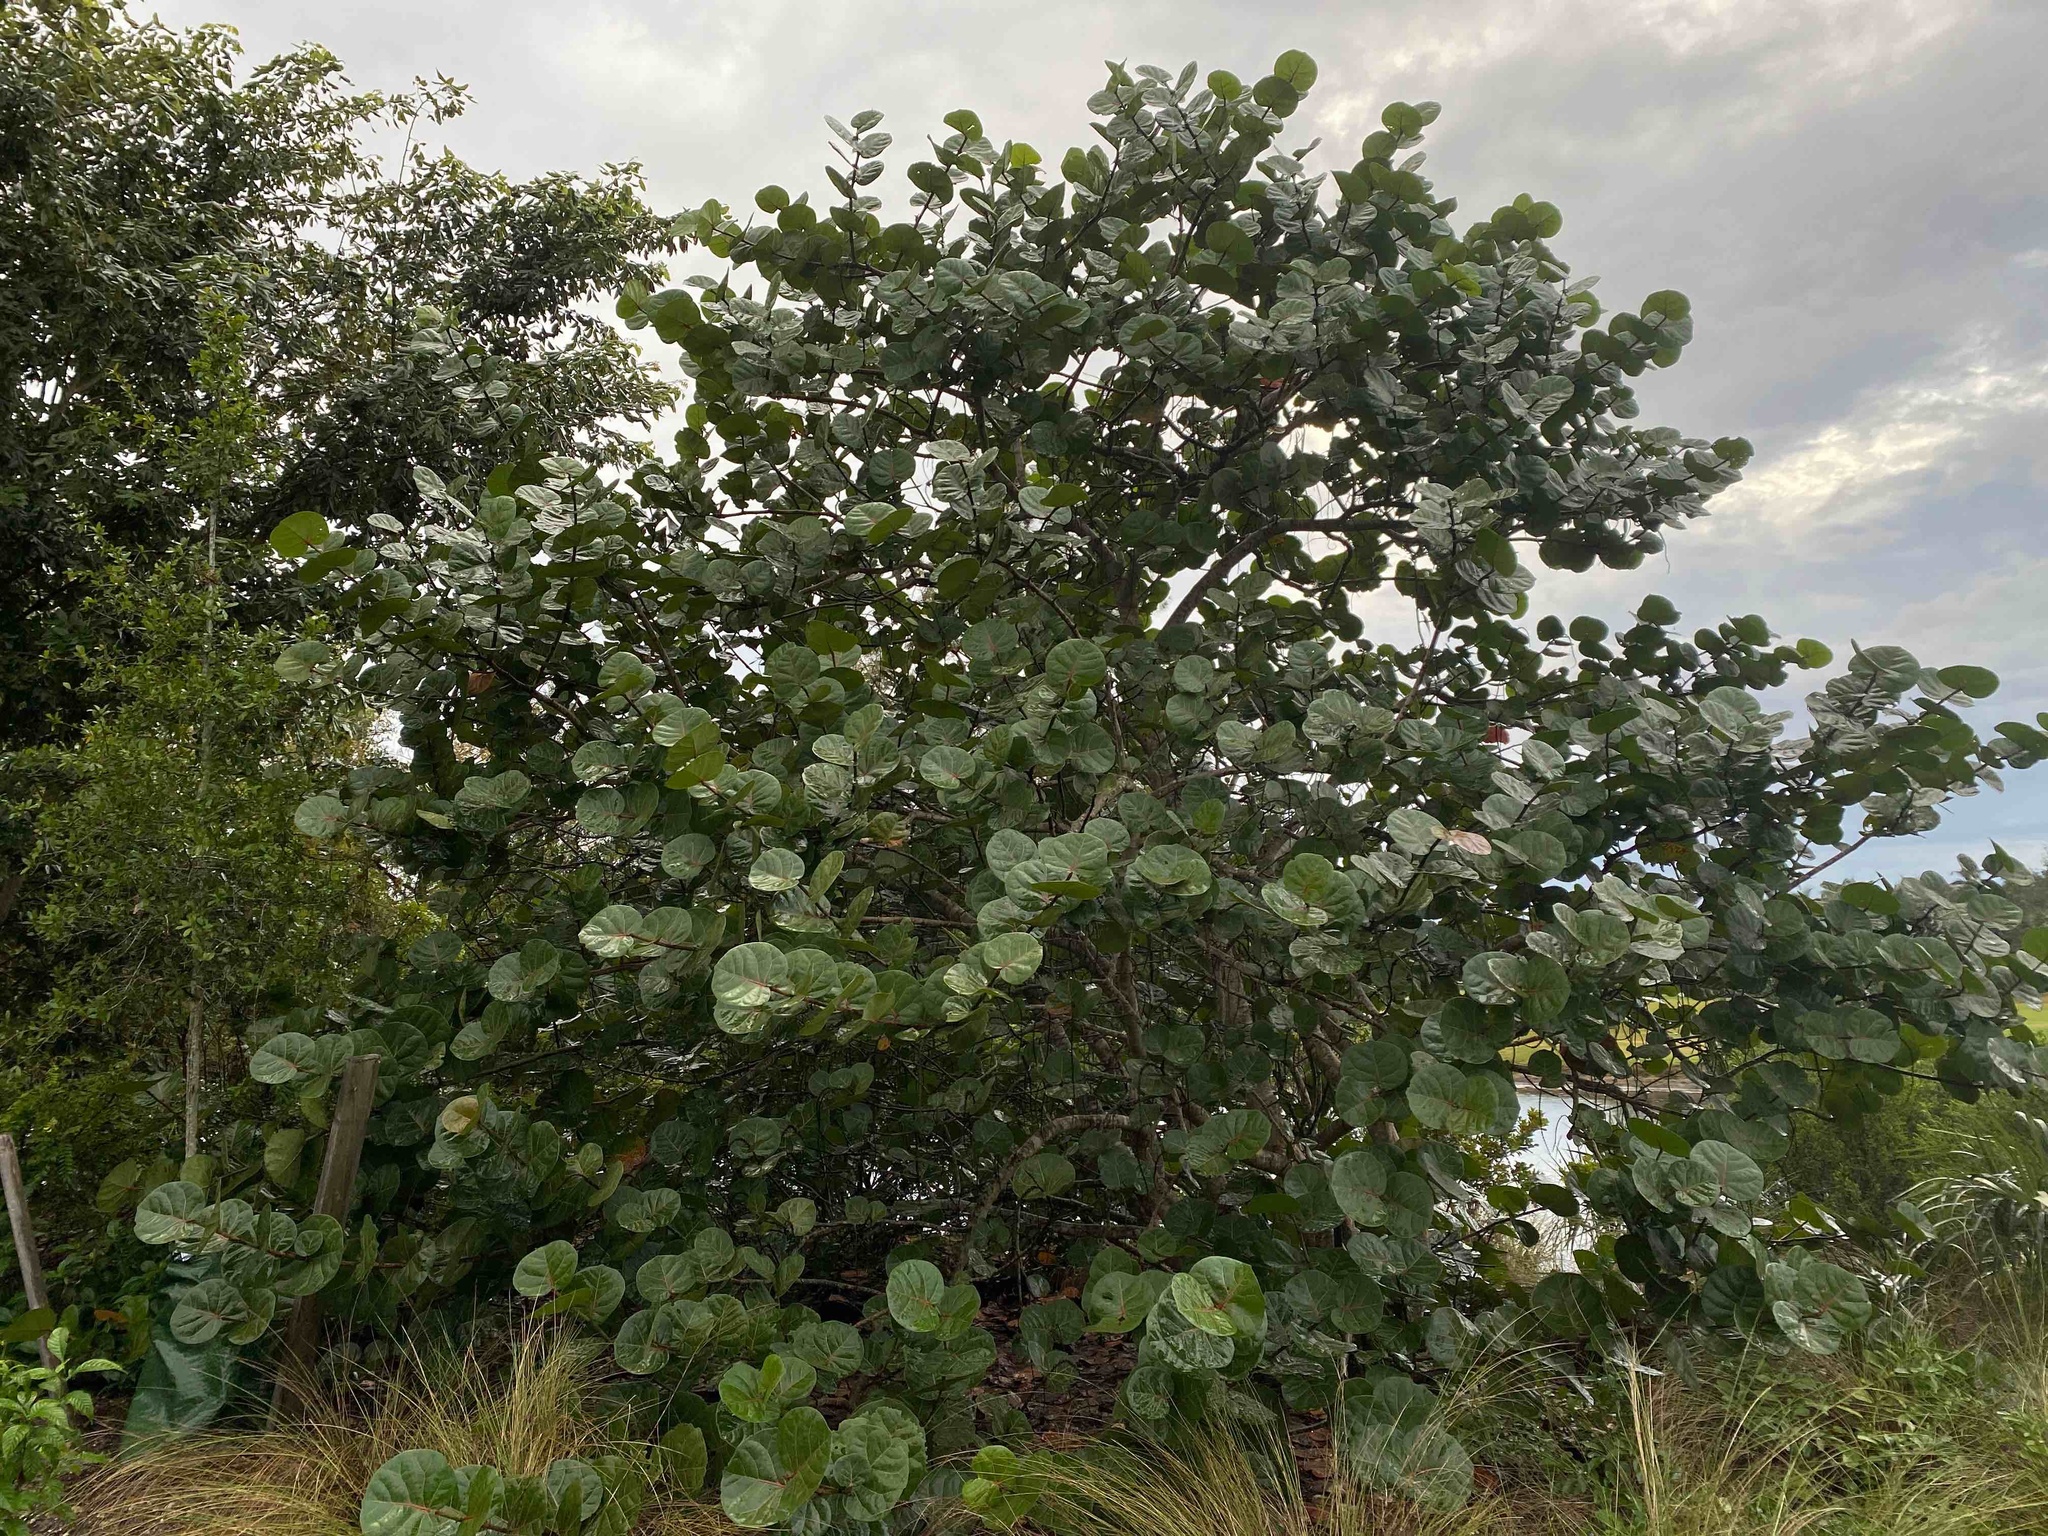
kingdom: Plantae
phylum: Tracheophyta
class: Magnoliopsida
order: Caryophyllales
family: Polygonaceae
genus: Coccoloba
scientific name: Coccoloba uvifera
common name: Seagrape
